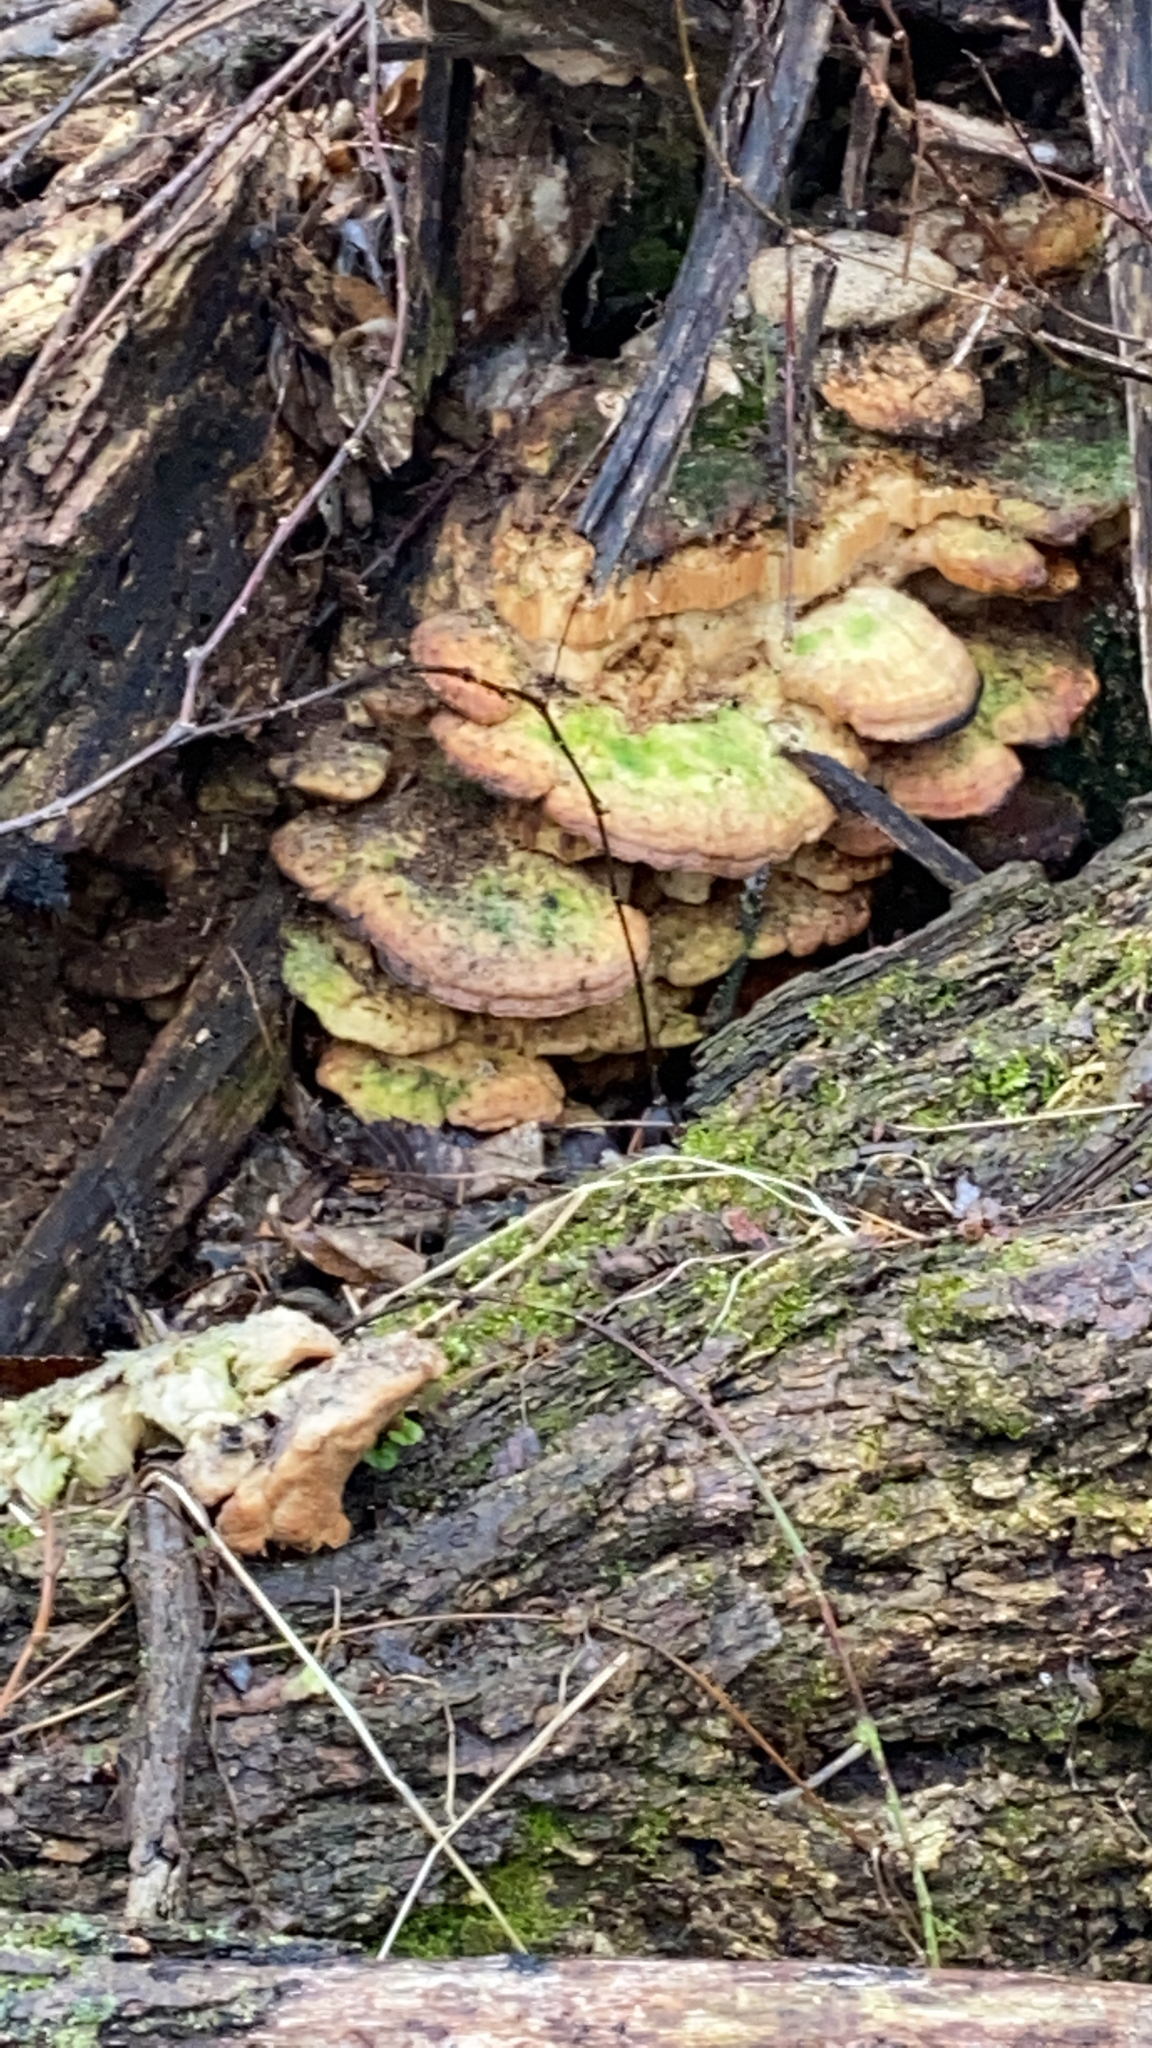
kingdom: Fungi
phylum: Basidiomycota
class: Agaricomycetes
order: Hymenochaetales
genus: Trichaptum
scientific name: Trichaptum biforme
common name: Violet-toothed polypore
